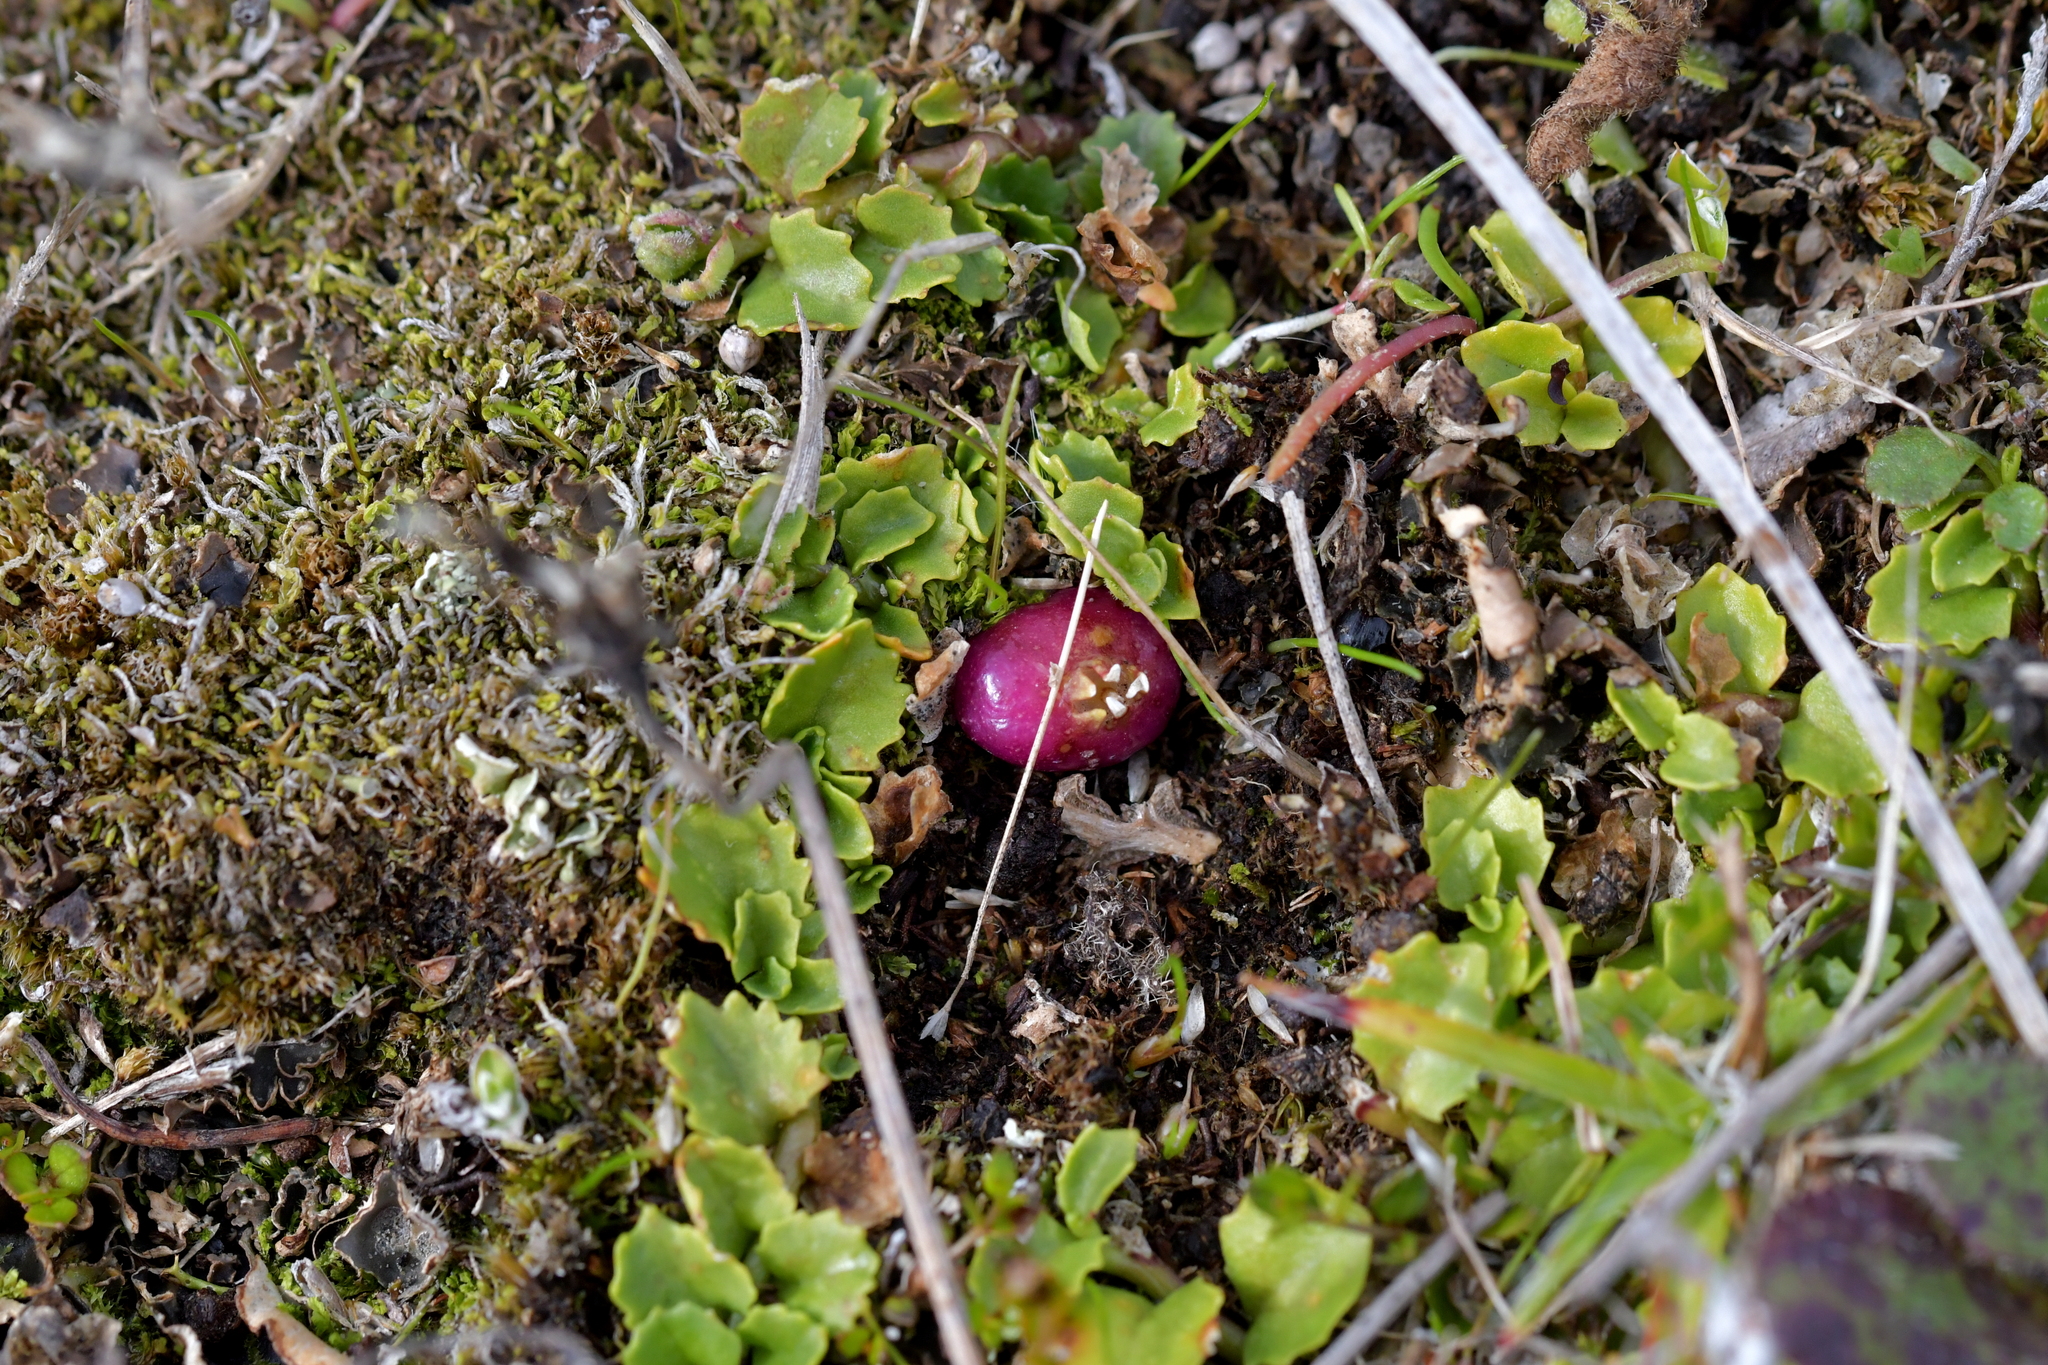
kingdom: Plantae
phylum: Tracheophyta
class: Magnoliopsida
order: Asterales
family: Campanulaceae
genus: Lobelia
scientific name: Lobelia arenaria
